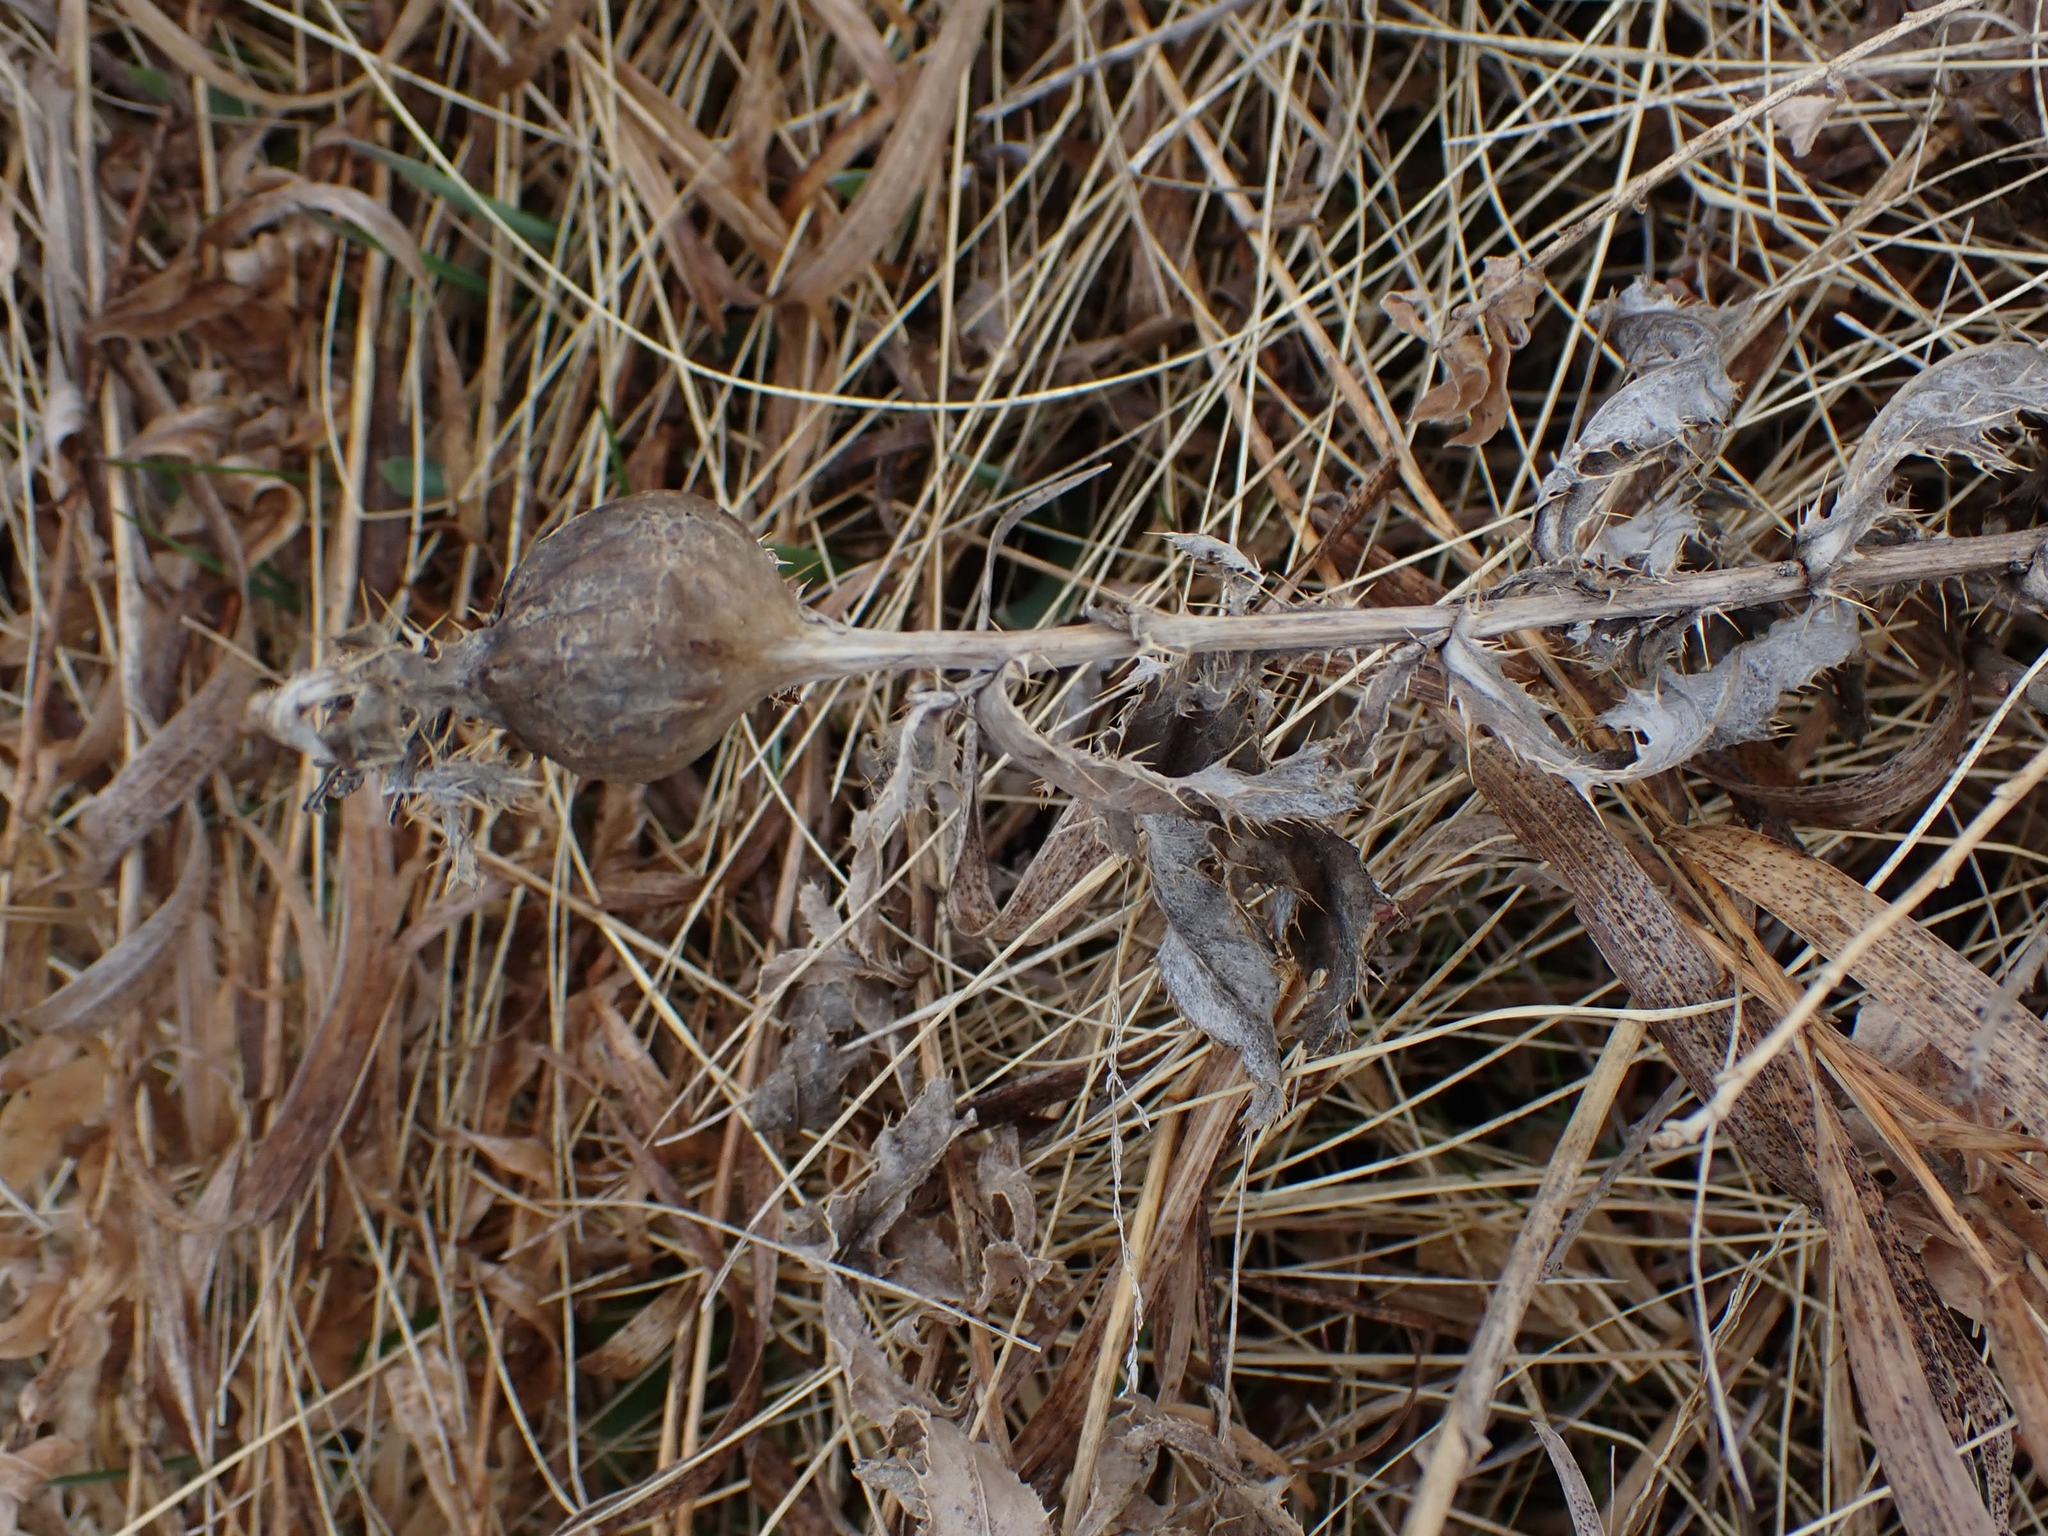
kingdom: Plantae
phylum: Tracheophyta
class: Magnoliopsida
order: Asterales
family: Asteraceae
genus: Cirsium
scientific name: Cirsium arvense
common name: Creeping thistle
